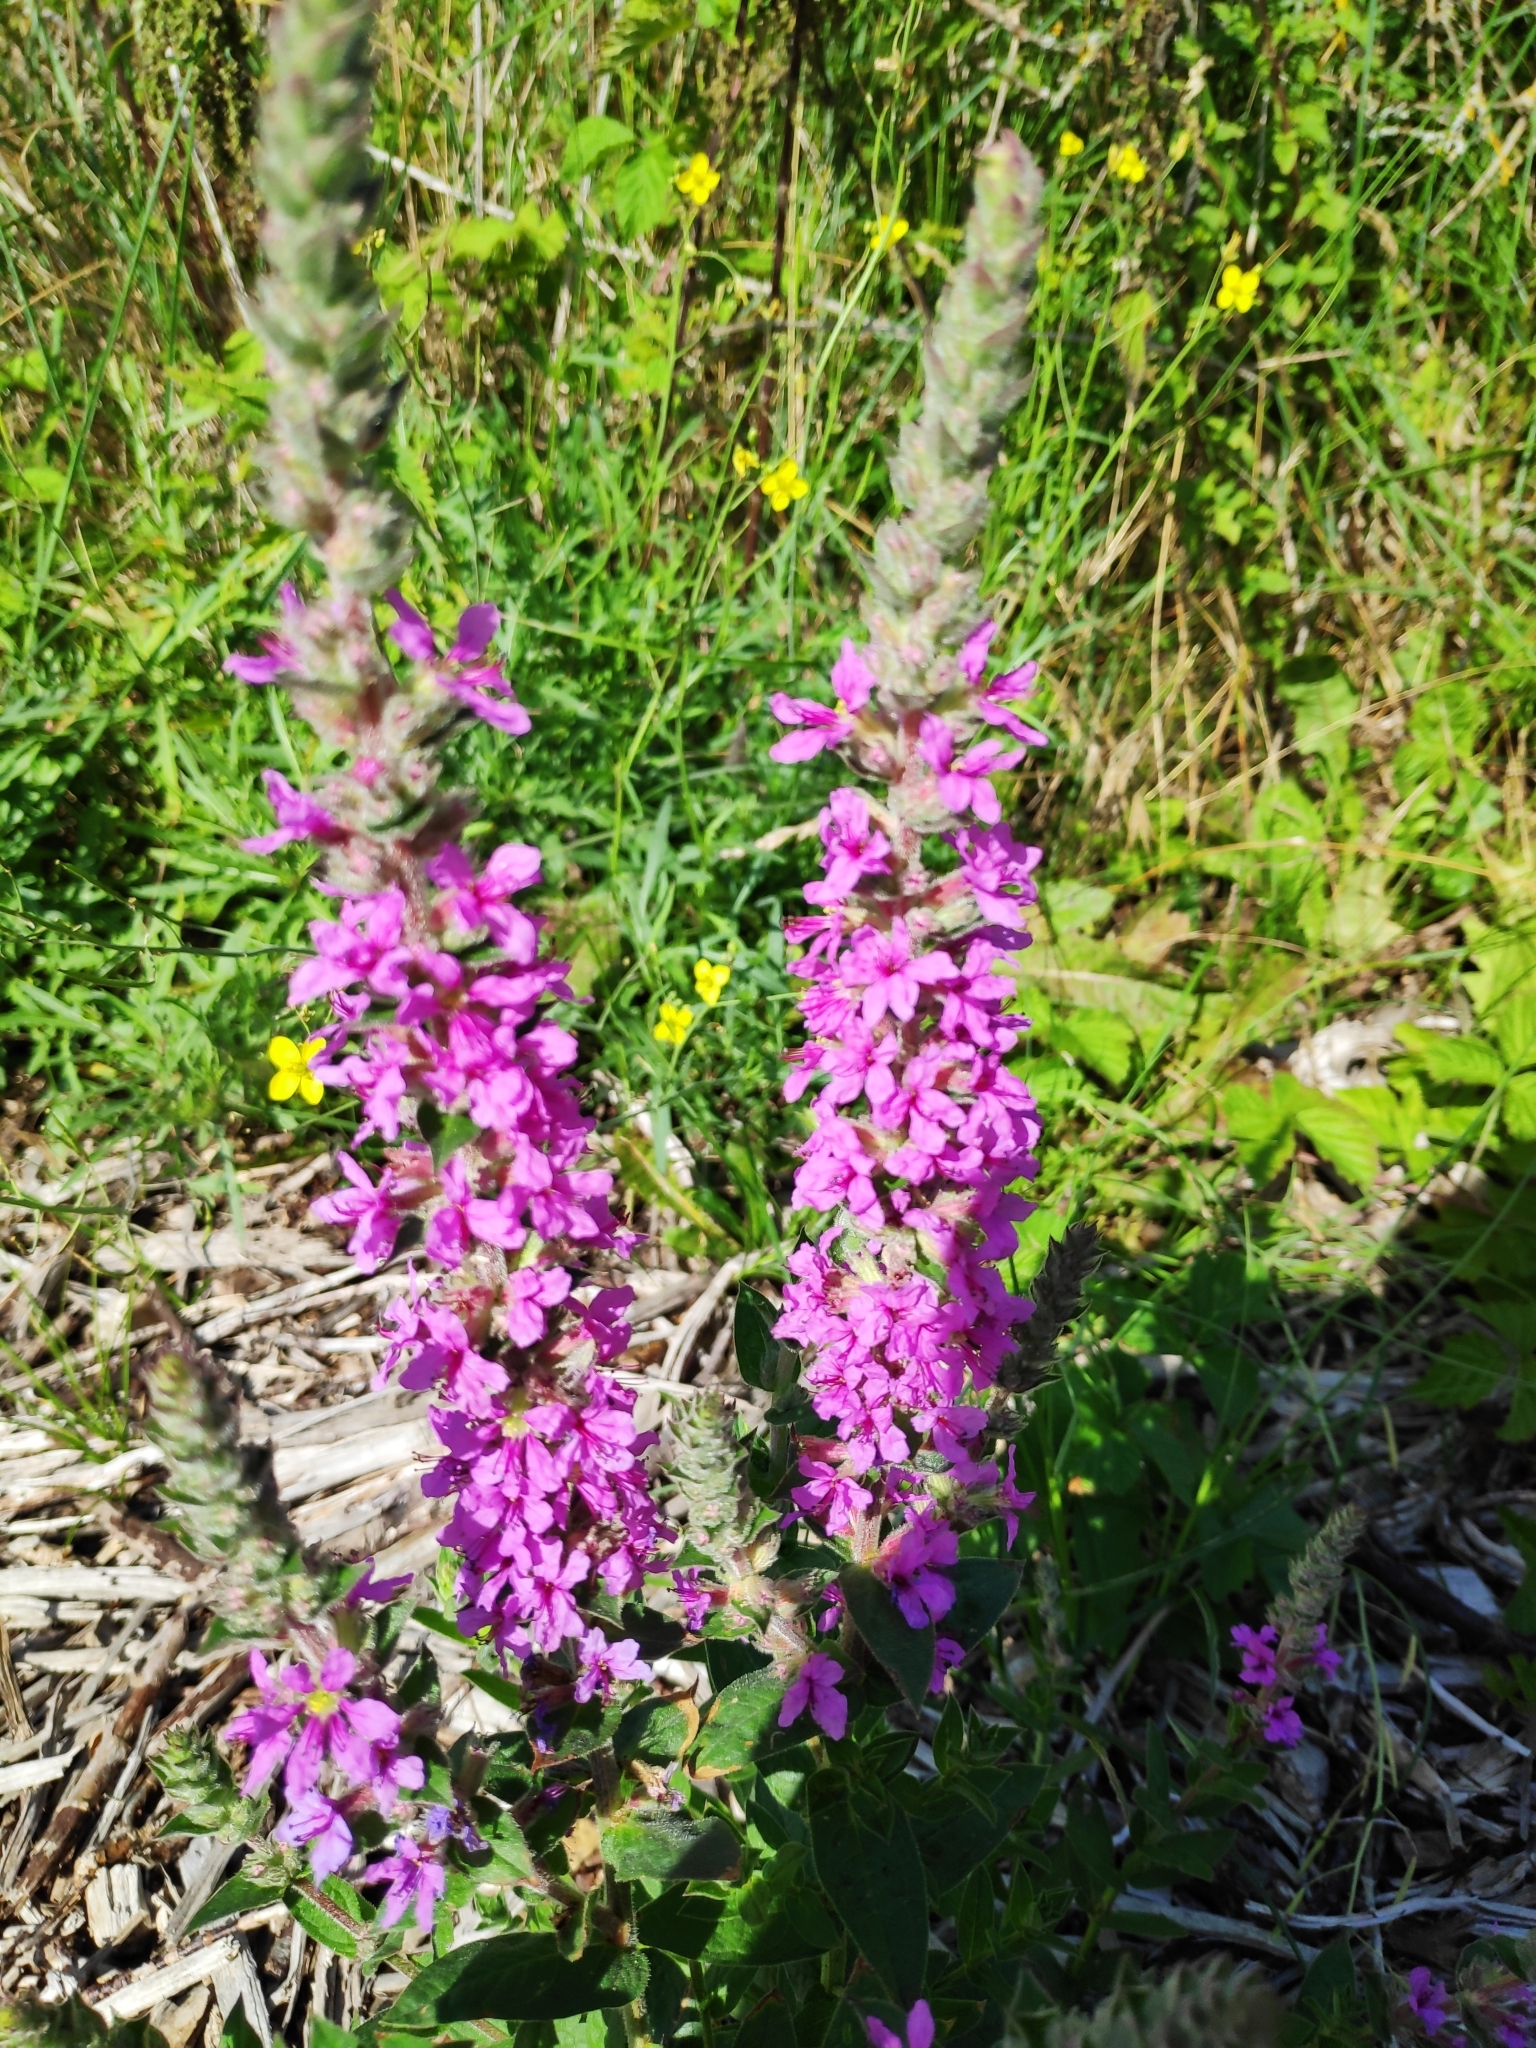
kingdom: Plantae
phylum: Tracheophyta
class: Magnoliopsida
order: Myrtales
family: Lythraceae
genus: Lythrum
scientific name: Lythrum salicaria
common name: Purple loosestrife
